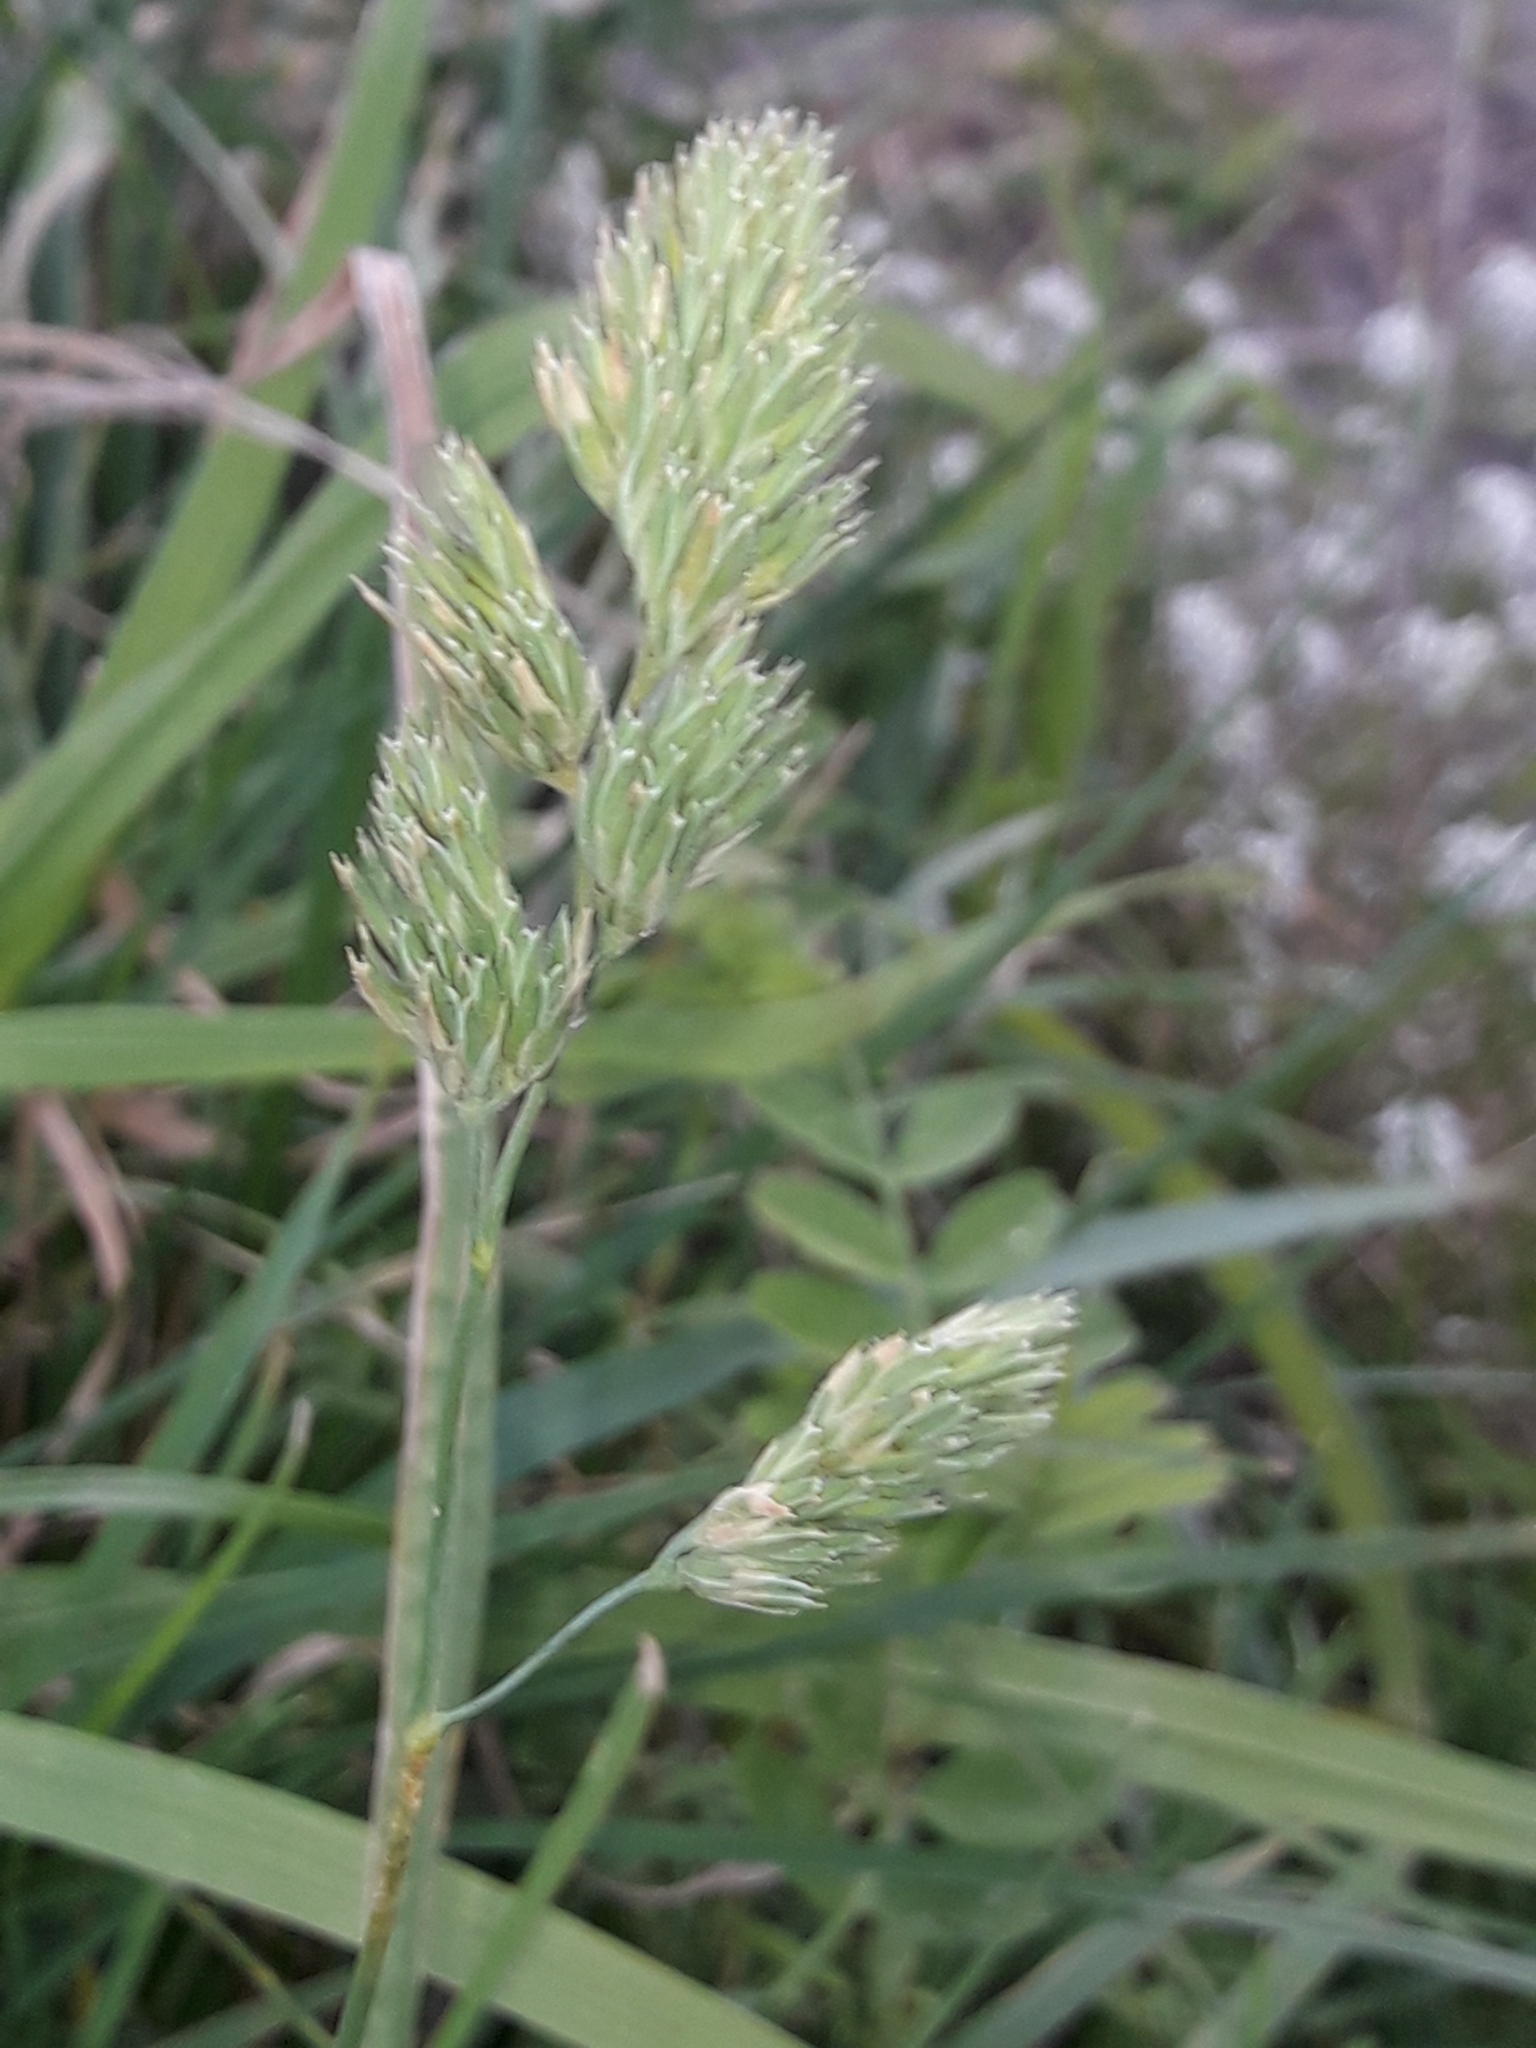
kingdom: Plantae
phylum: Tracheophyta
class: Liliopsida
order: Poales
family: Poaceae
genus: Dactylis
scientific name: Dactylis glomerata
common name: Orchardgrass
